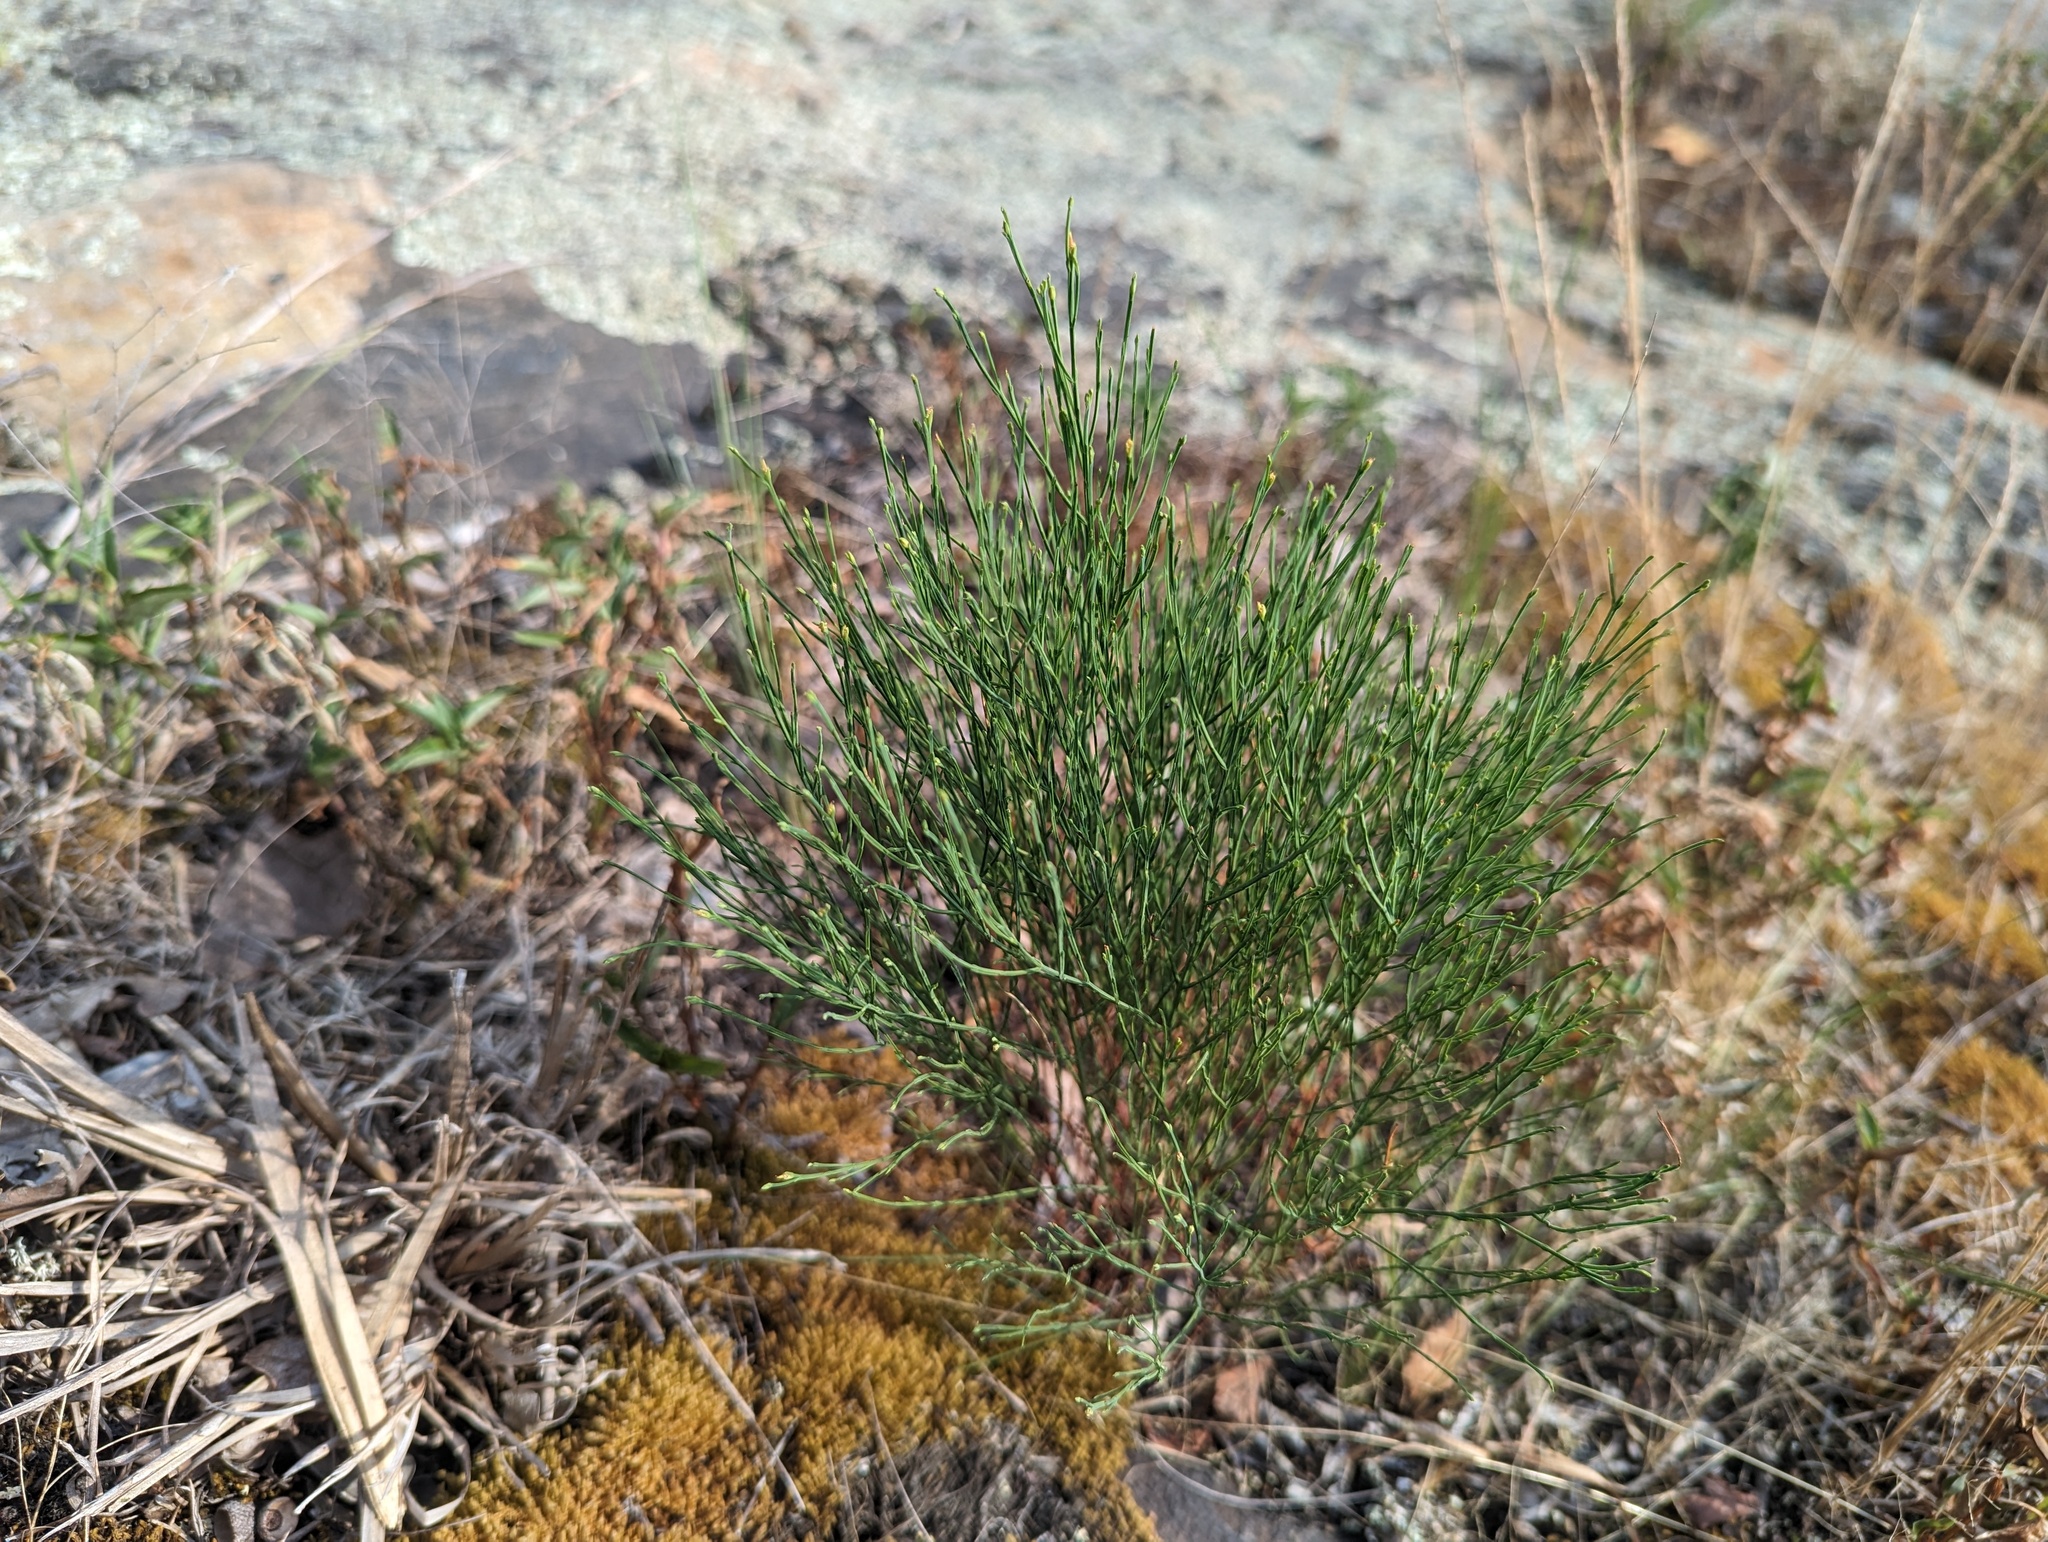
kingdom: Plantae
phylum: Tracheophyta
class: Magnoliopsida
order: Malpighiales
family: Hypericaceae
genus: Hypericum
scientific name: Hypericum gentianoides
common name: Gentian-leaved st. john's-wort
